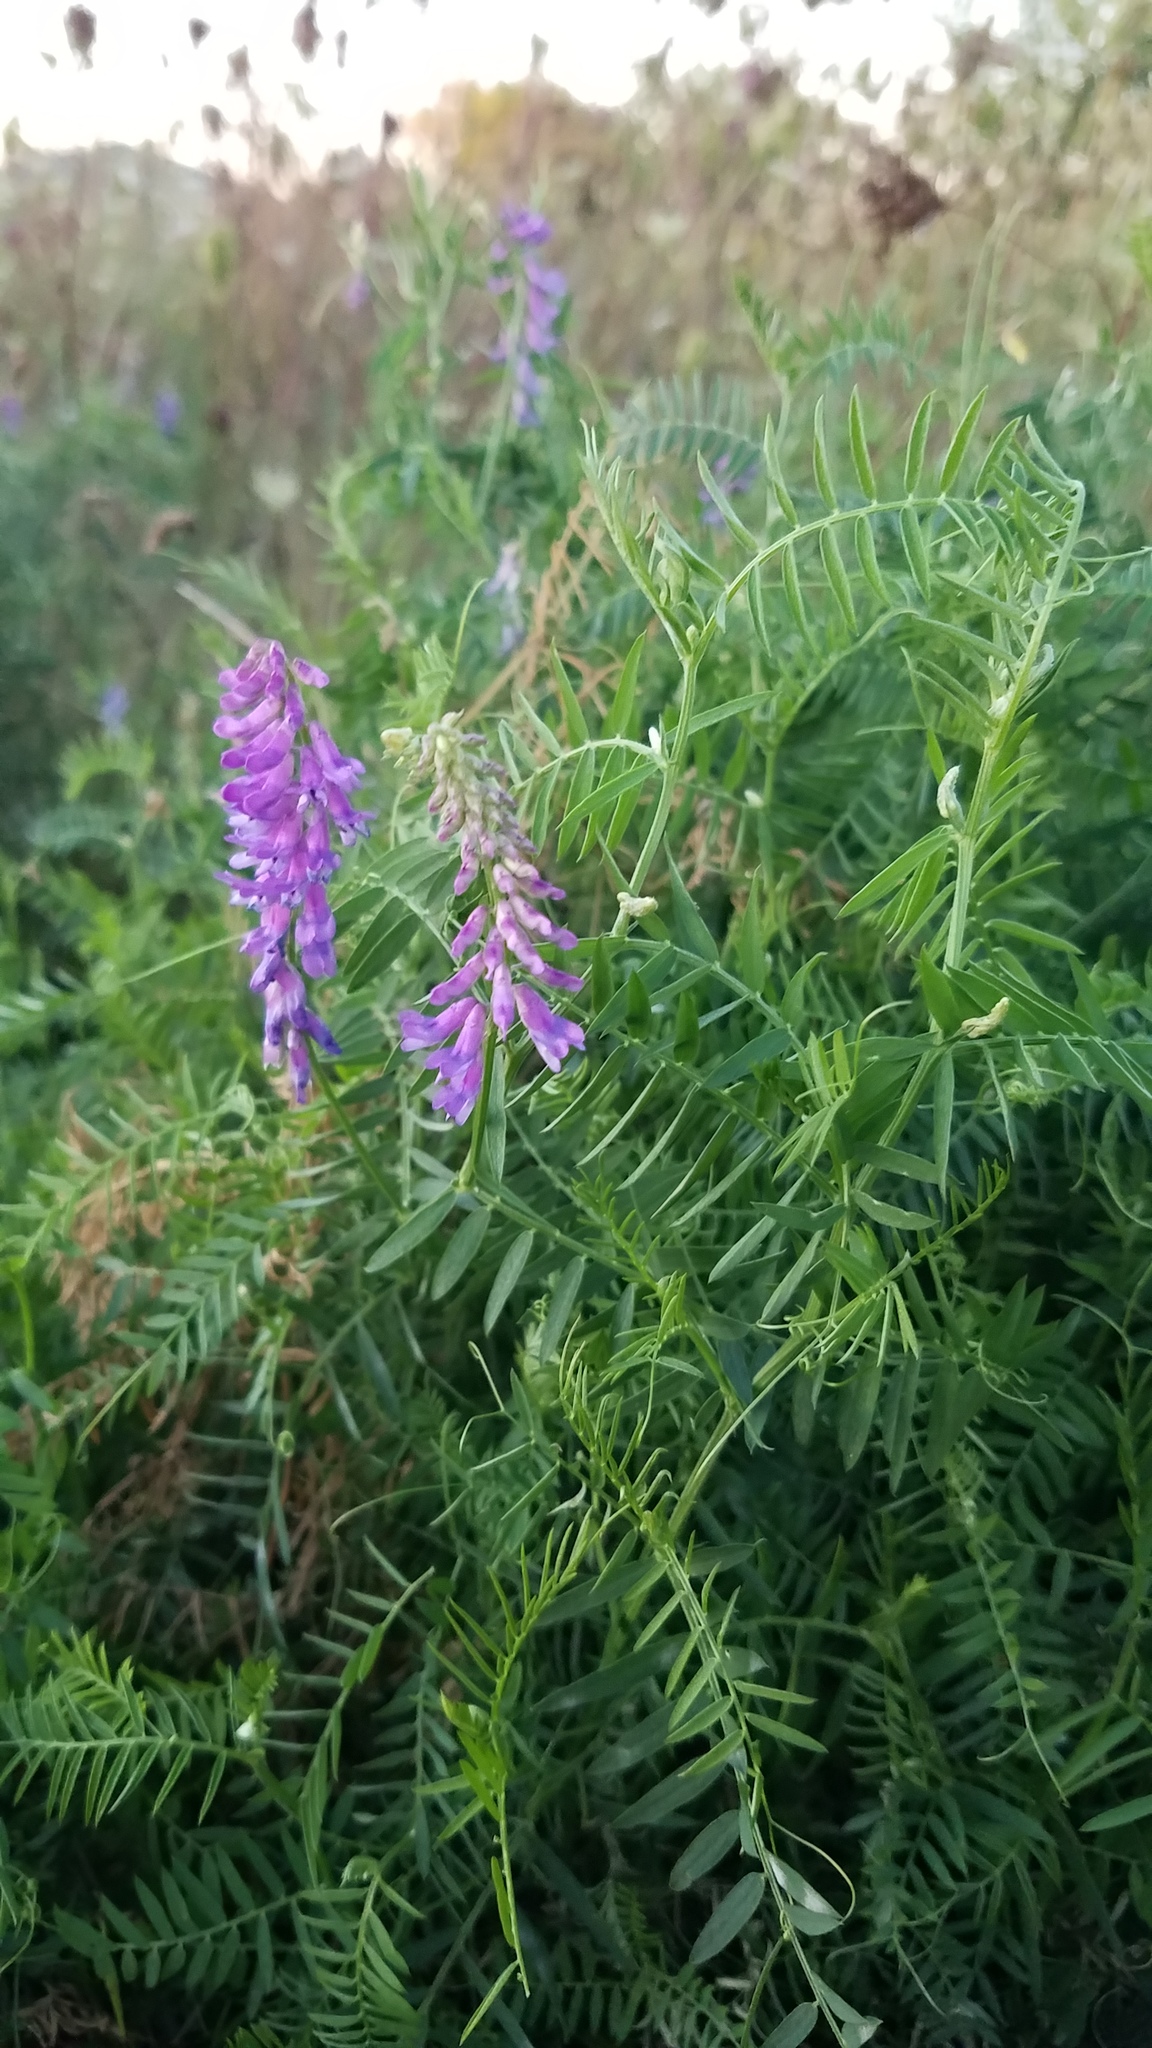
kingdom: Plantae
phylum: Tracheophyta
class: Magnoliopsida
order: Fabales
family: Fabaceae
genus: Vicia
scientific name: Vicia cracca
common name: Bird vetch
